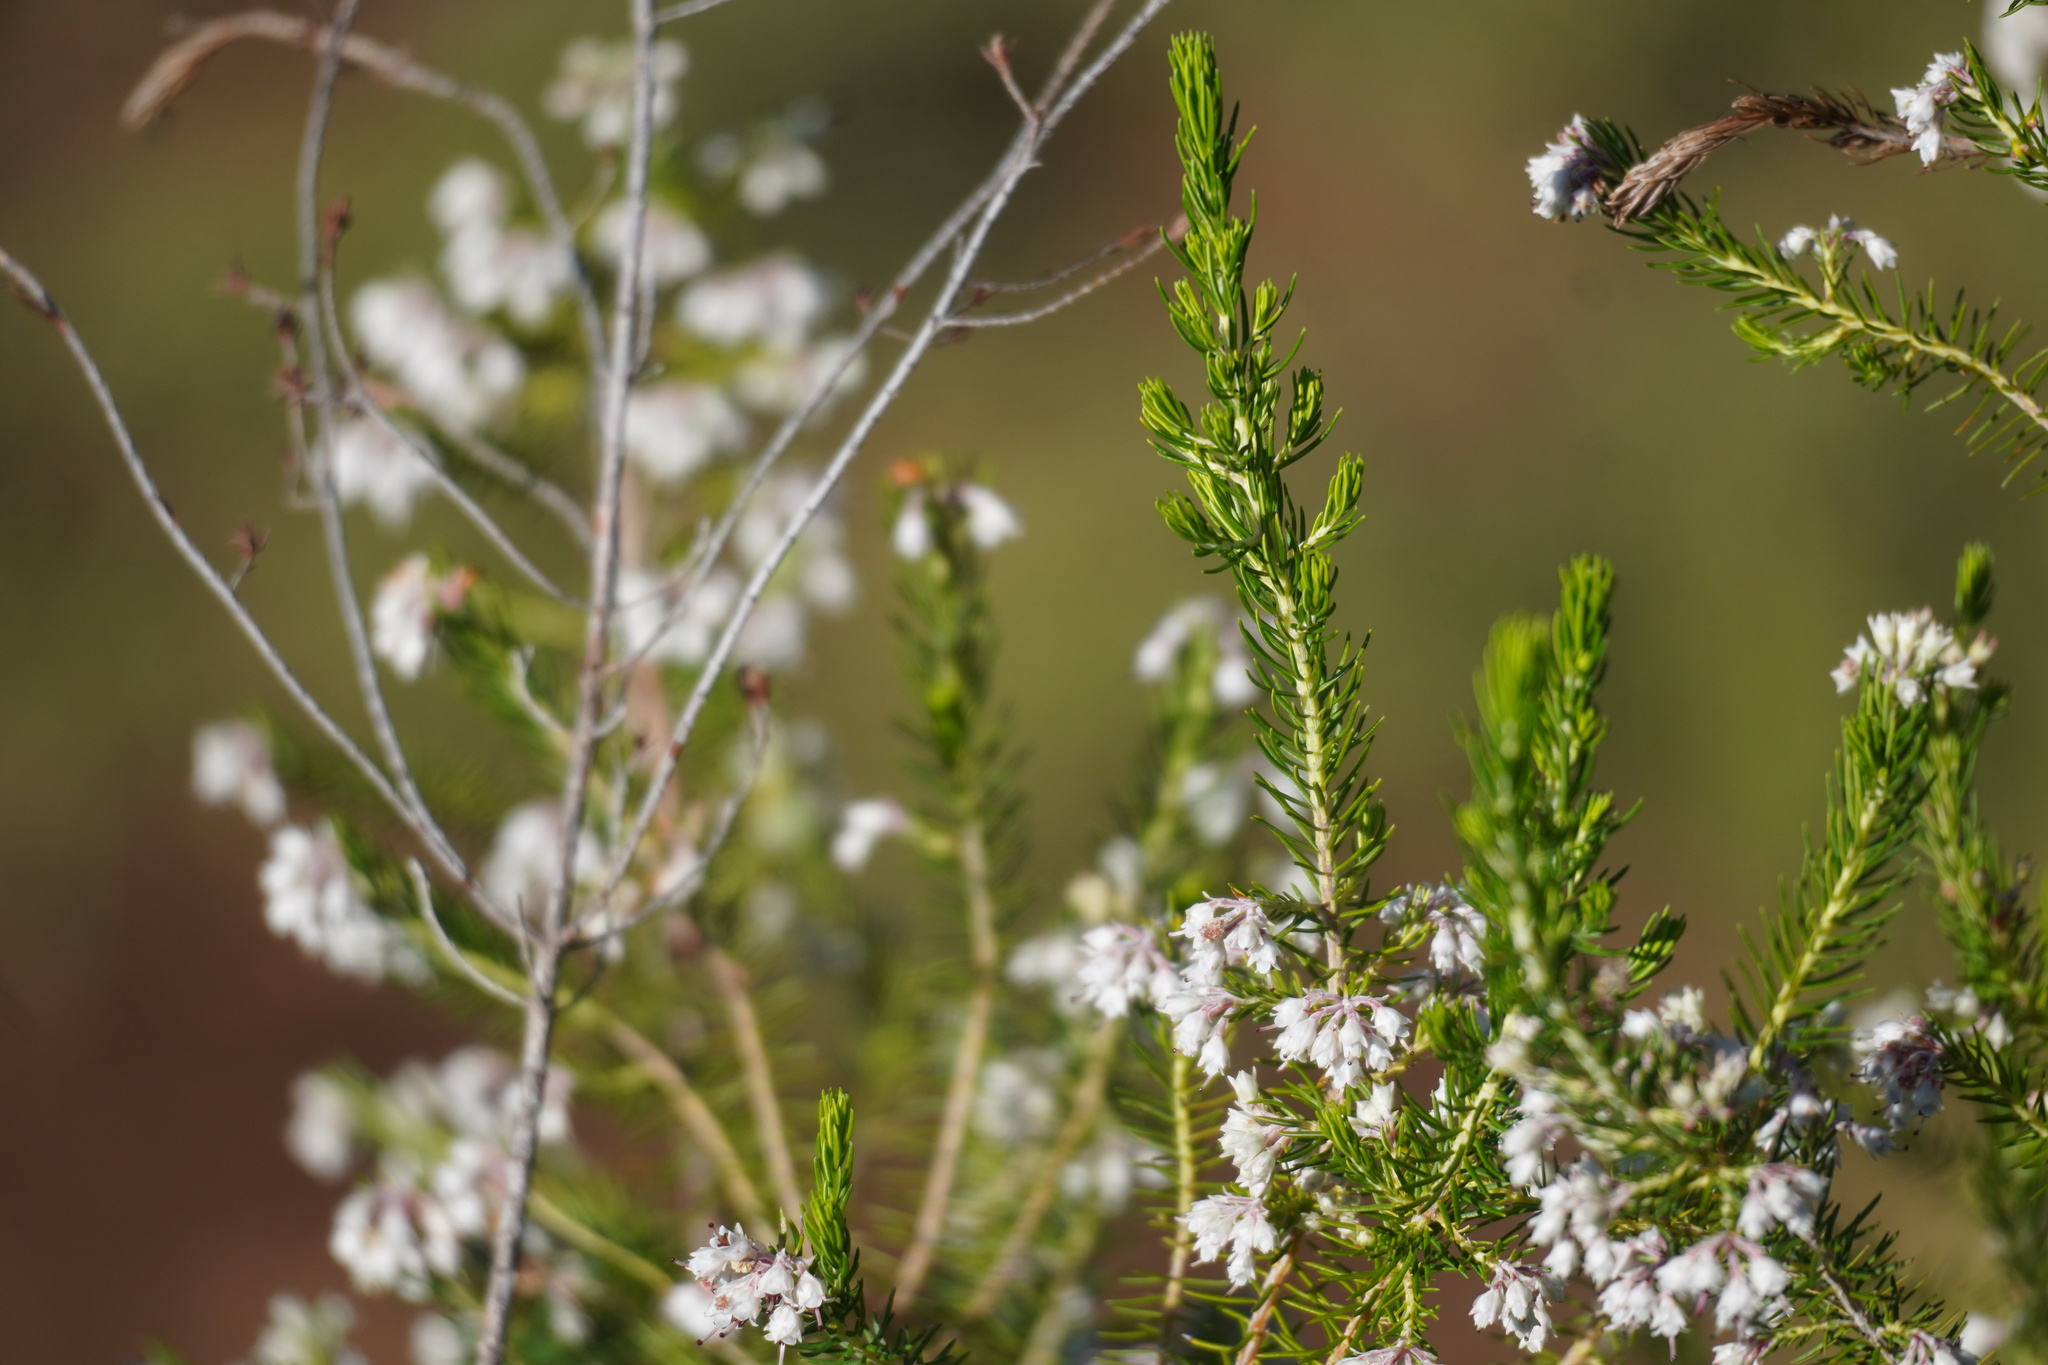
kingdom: Plantae
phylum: Tracheophyta
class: Magnoliopsida
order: Ericales
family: Ericaceae
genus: Erica
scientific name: Erica brownleeae
